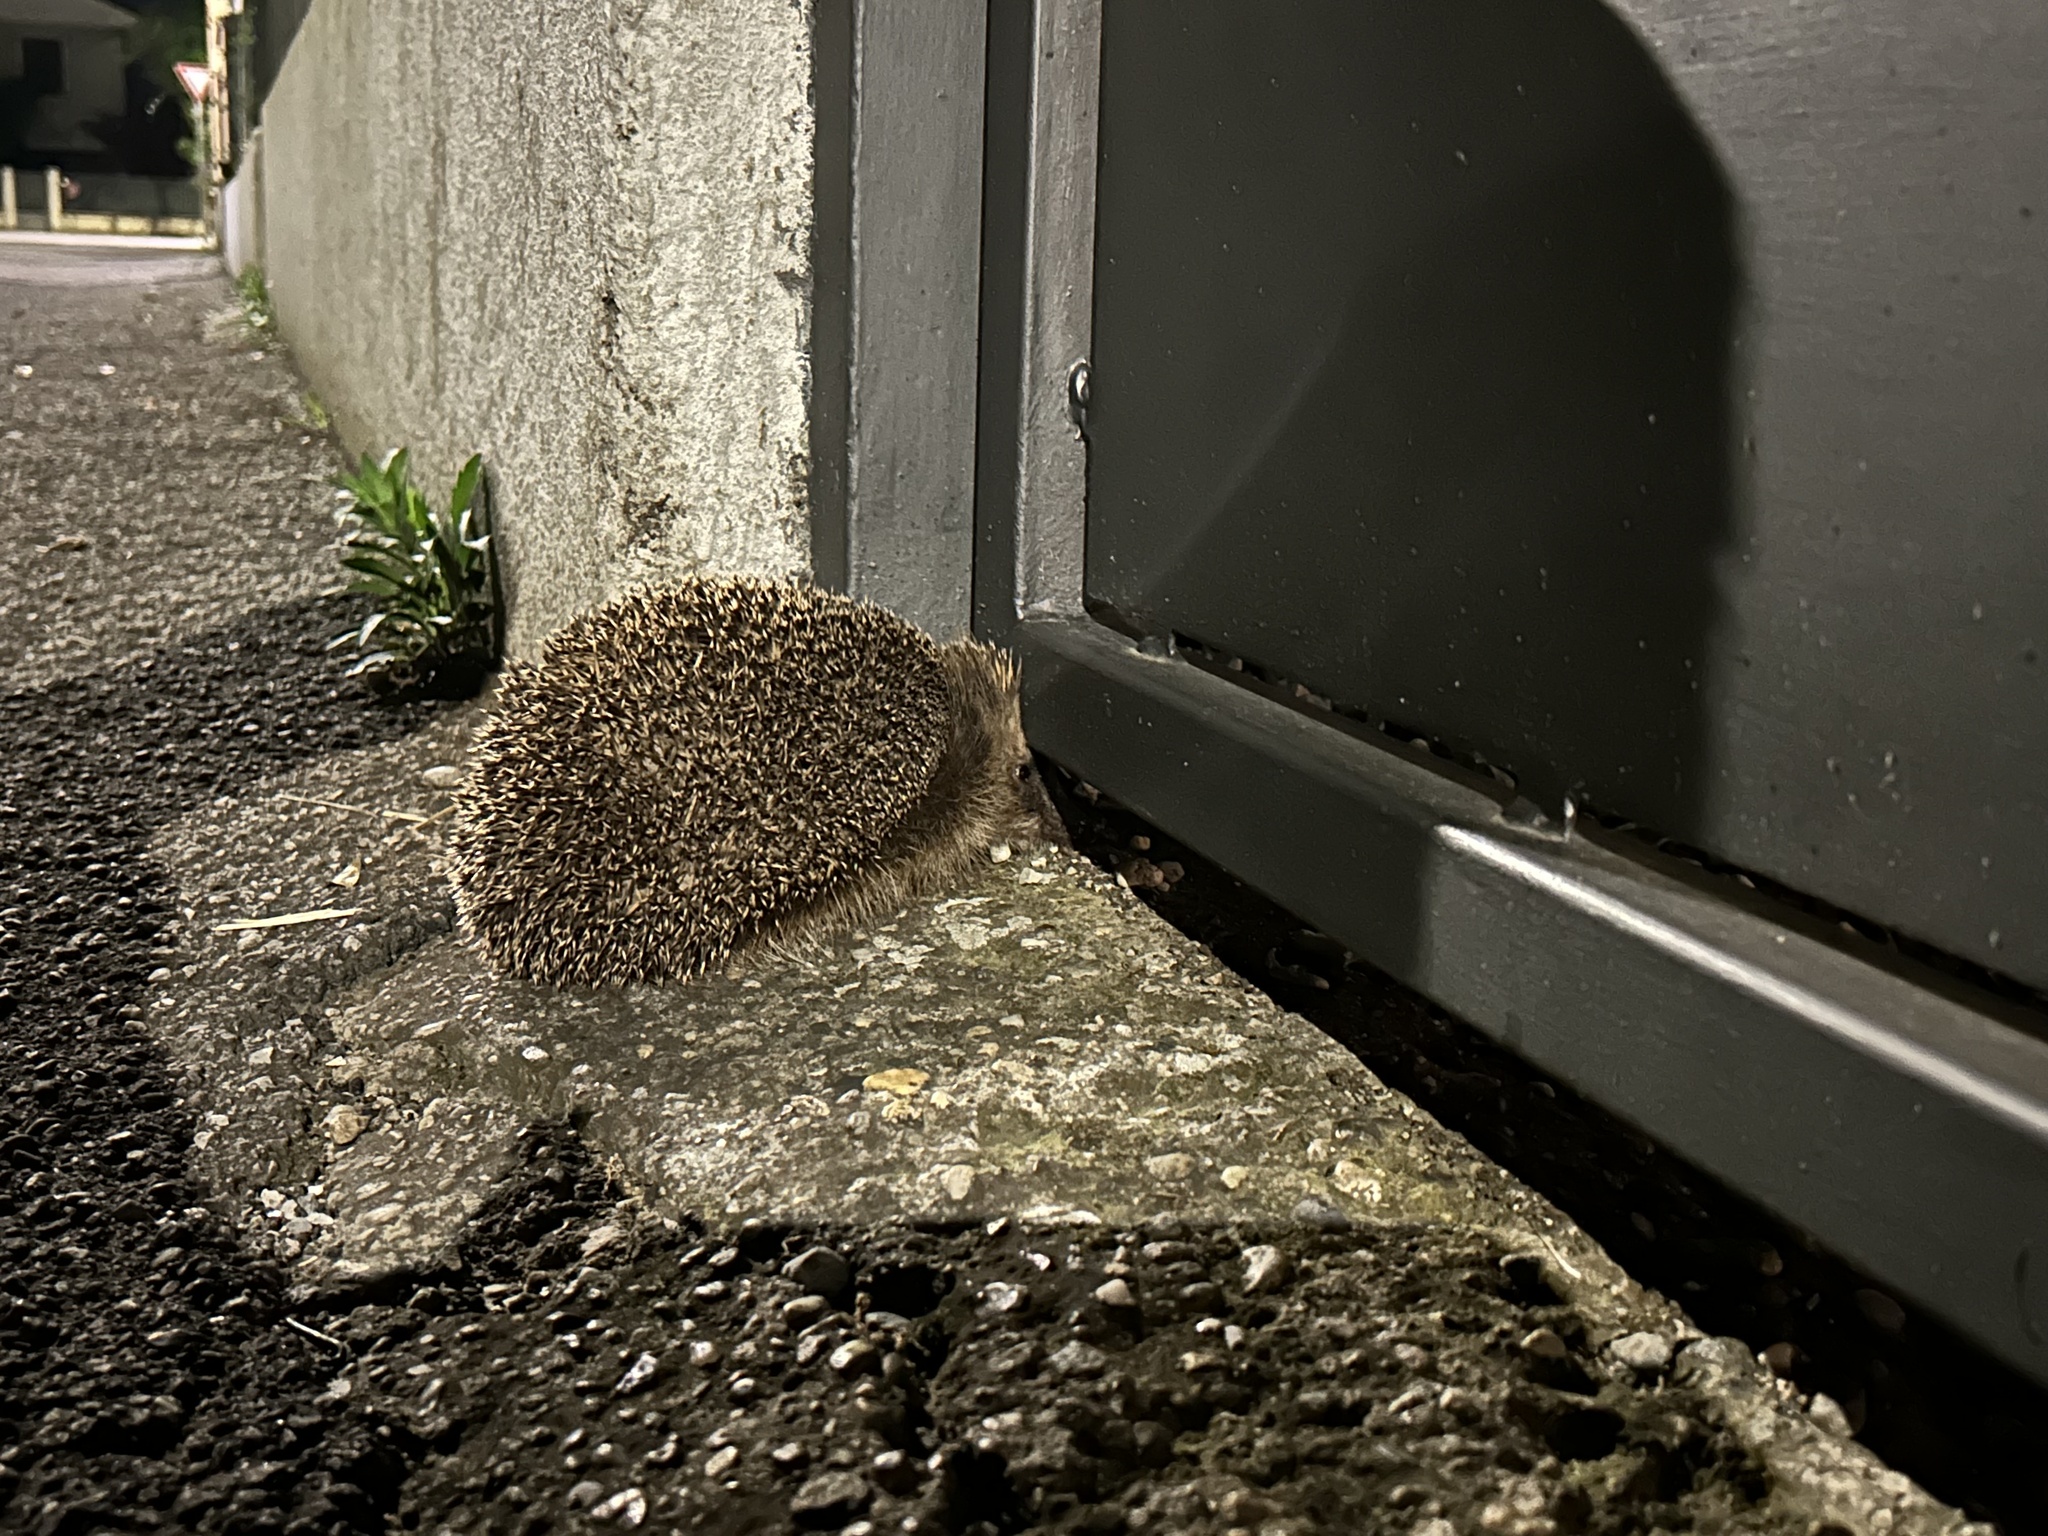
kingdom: Animalia
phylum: Chordata
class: Mammalia
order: Erinaceomorpha
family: Erinaceidae
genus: Erinaceus
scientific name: Erinaceus europaeus
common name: West european hedgehog
